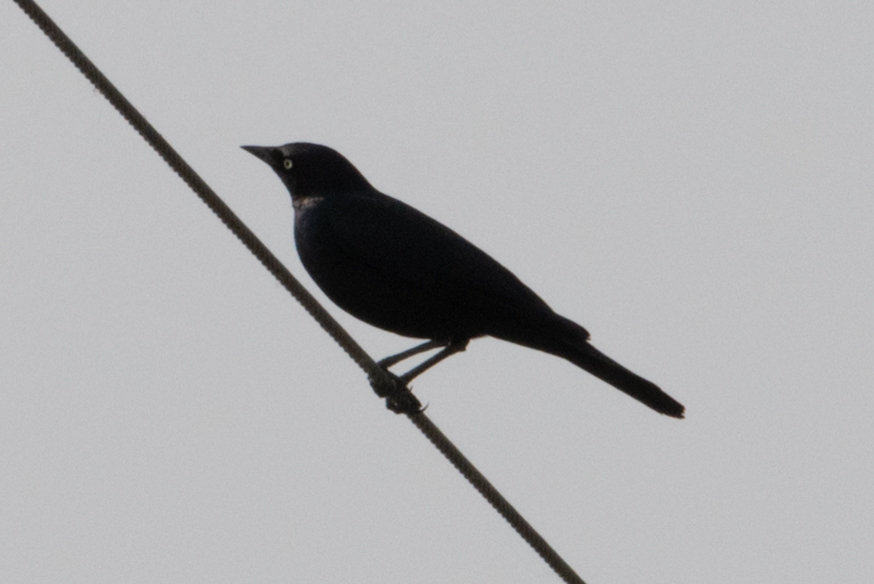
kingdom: Animalia
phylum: Chordata
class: Aves
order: Passeriformes
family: Icteridae
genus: Euphagus
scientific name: Euphagus cyanocephalus
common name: Brewer's blackbird
